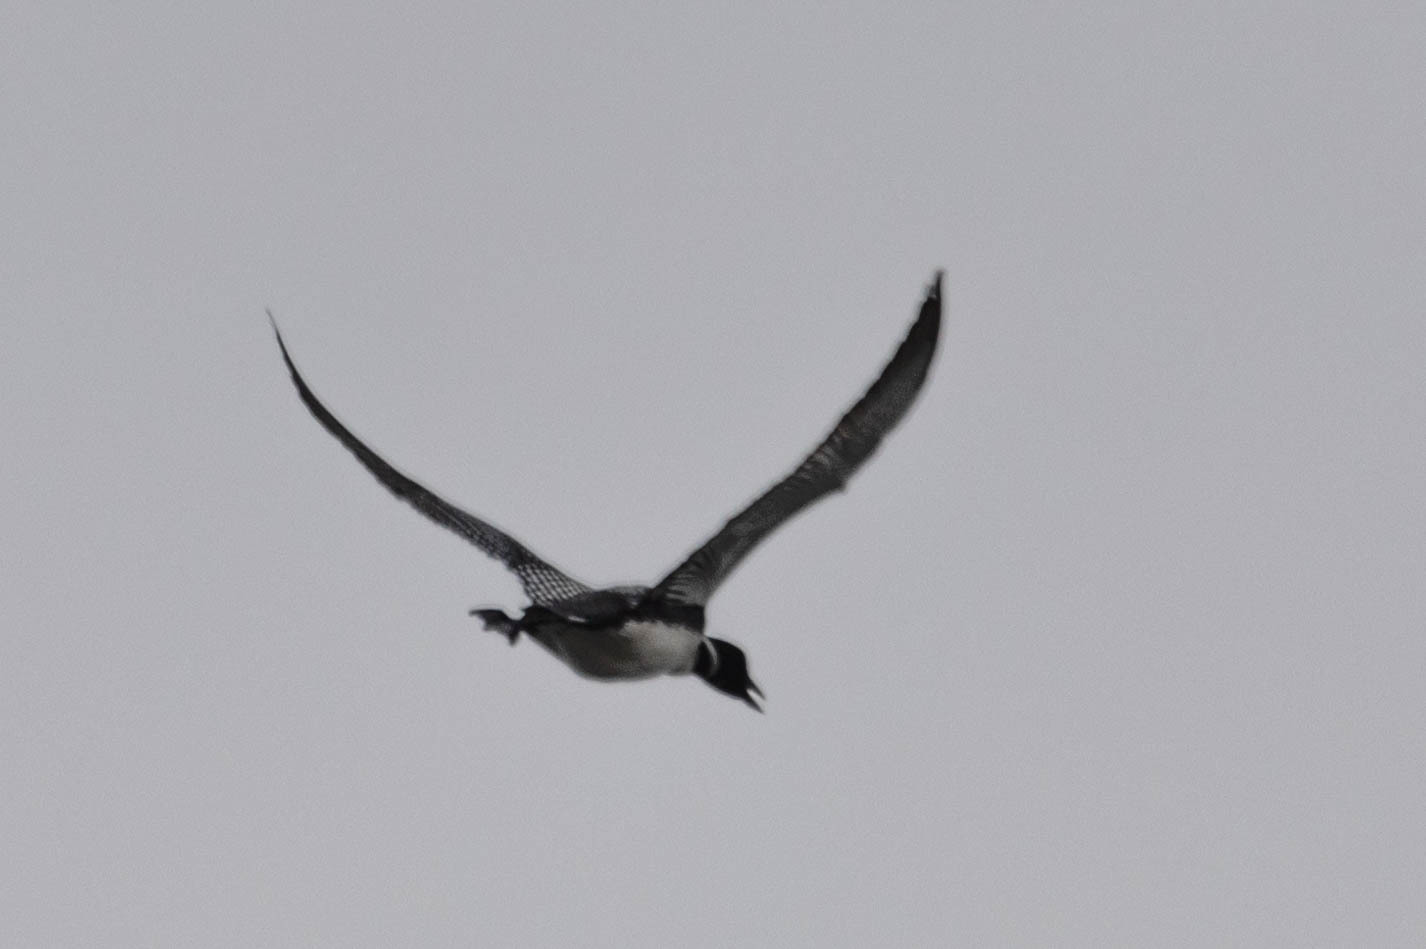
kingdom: Animalia
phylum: Chordata
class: Aves
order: Gaviiformes
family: Gaviidae
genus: Gavia
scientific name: Gavia immer
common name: Common loon
